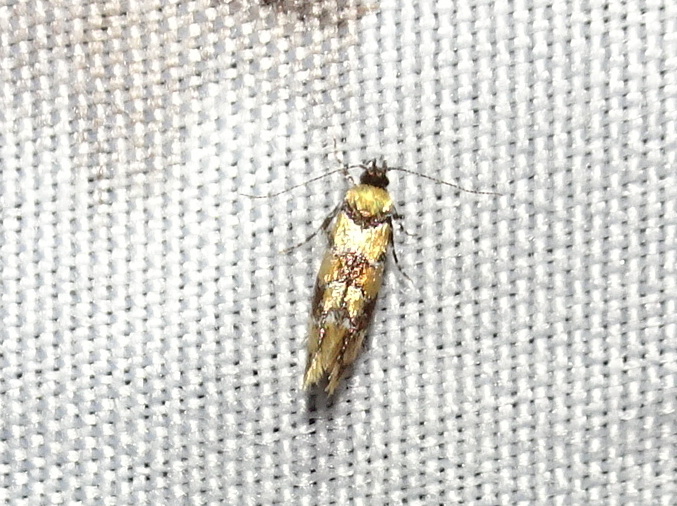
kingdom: Animalia
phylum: Arthropoda
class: Insecta
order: Lepidoptera
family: Oecophoridae
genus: Decantha
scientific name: Decantha borkhausenii
